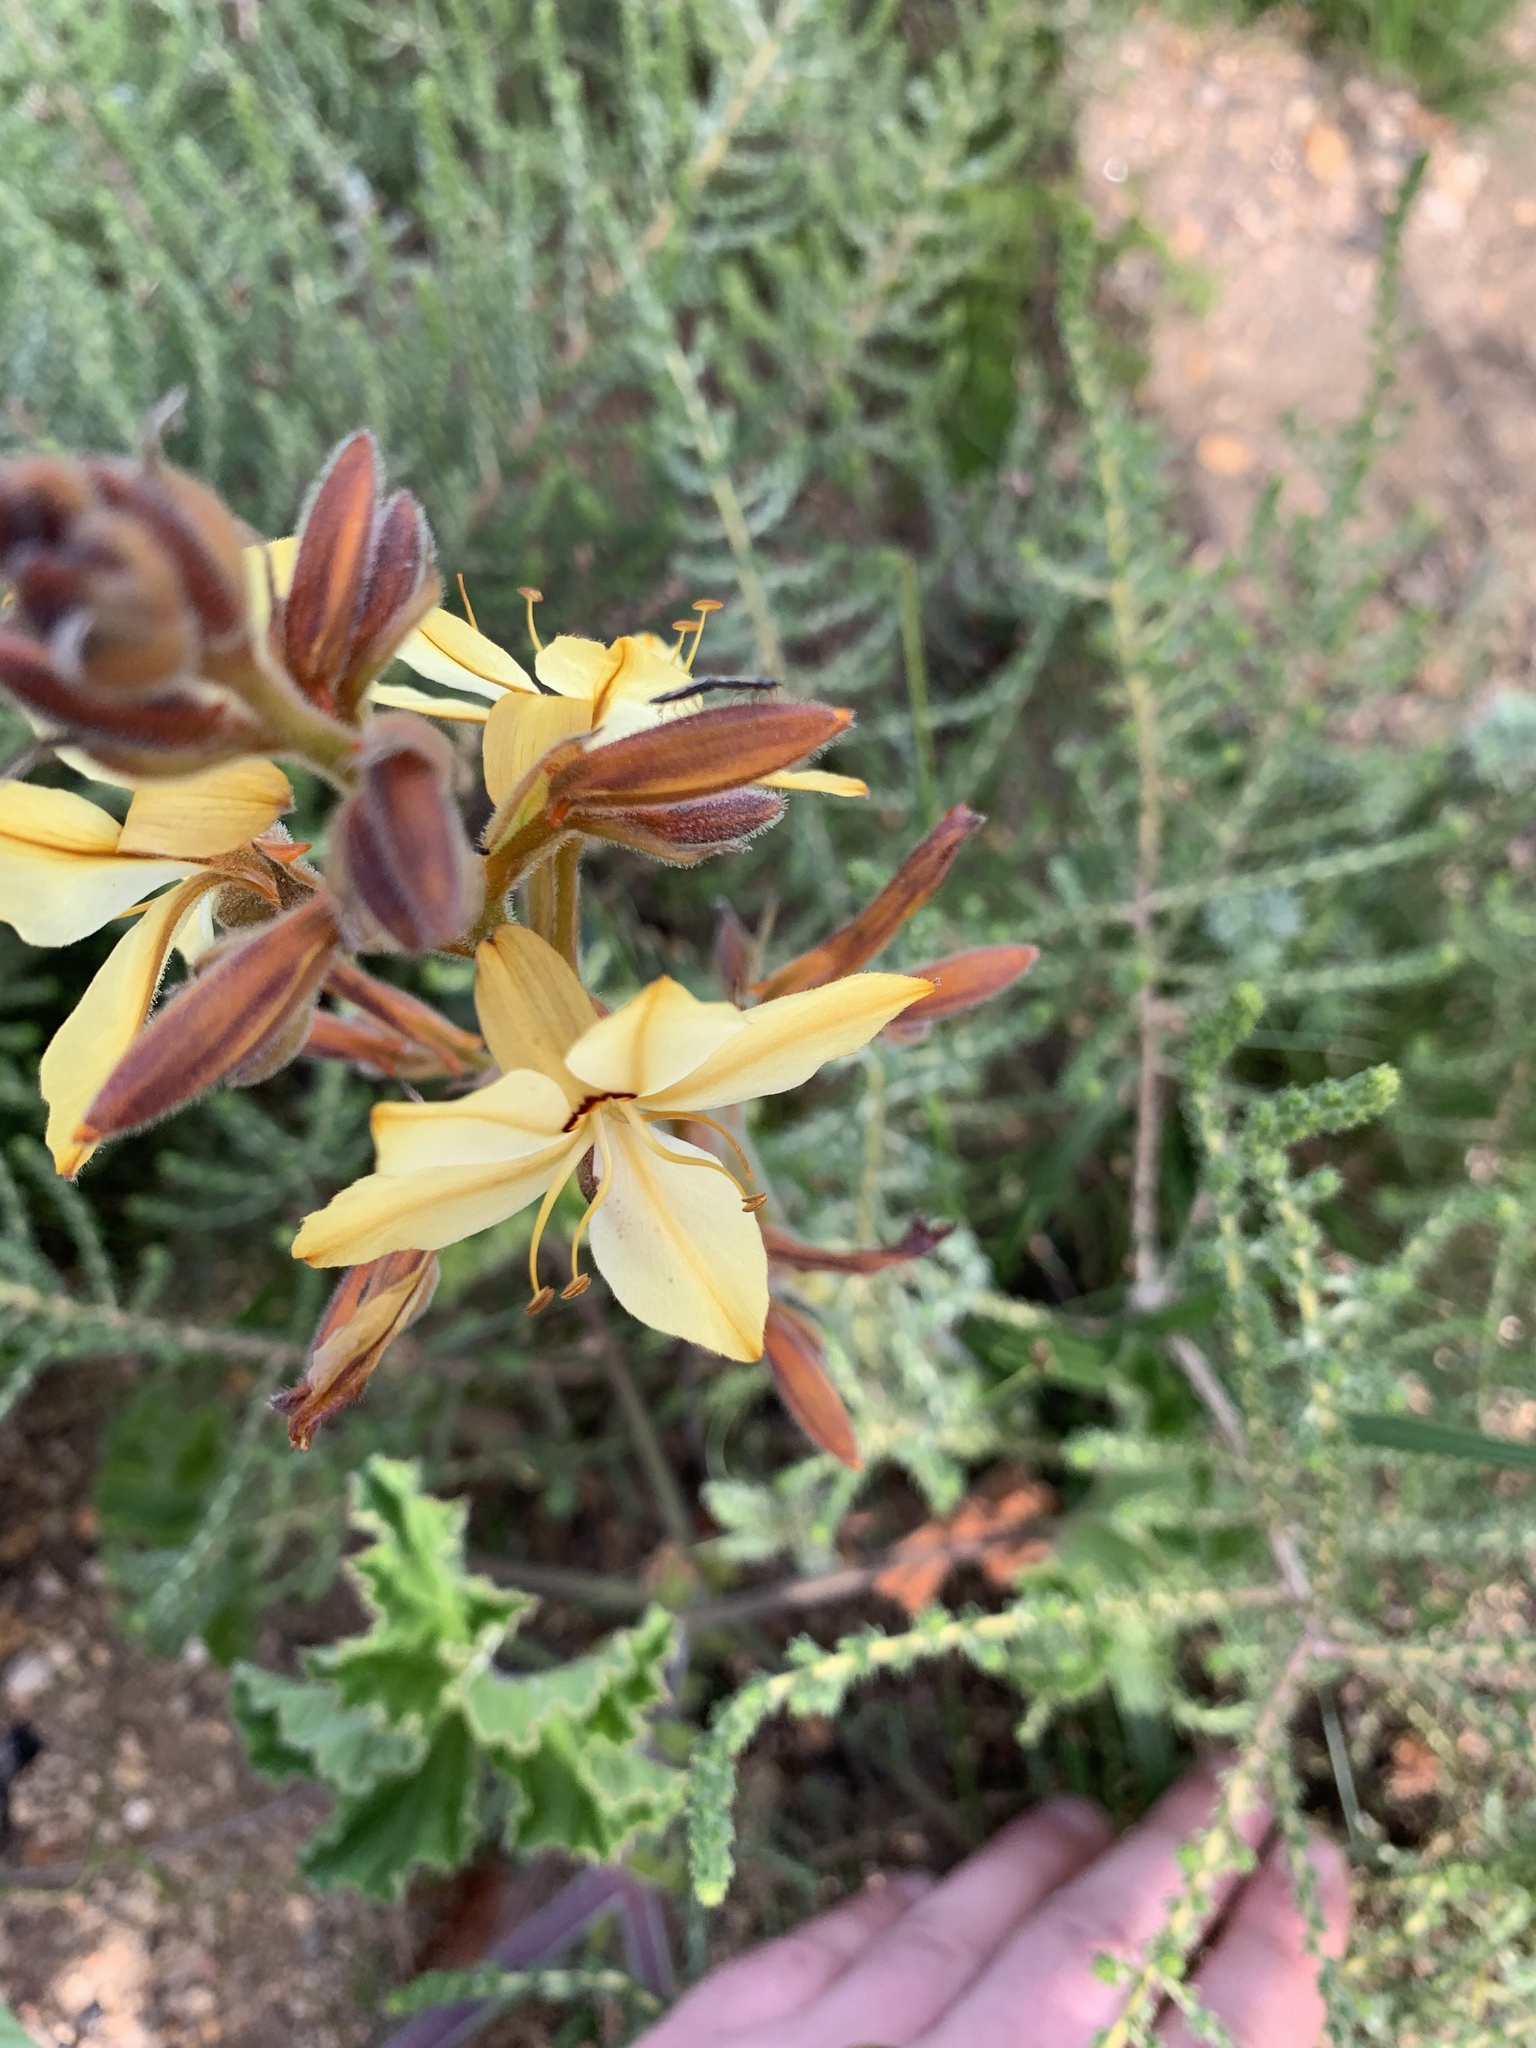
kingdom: Plantae
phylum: Tracheophyta
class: Liliopsida
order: Commelinales
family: Haemodoraceae
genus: Wachendorfia
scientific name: Wachendorfia paniculata
